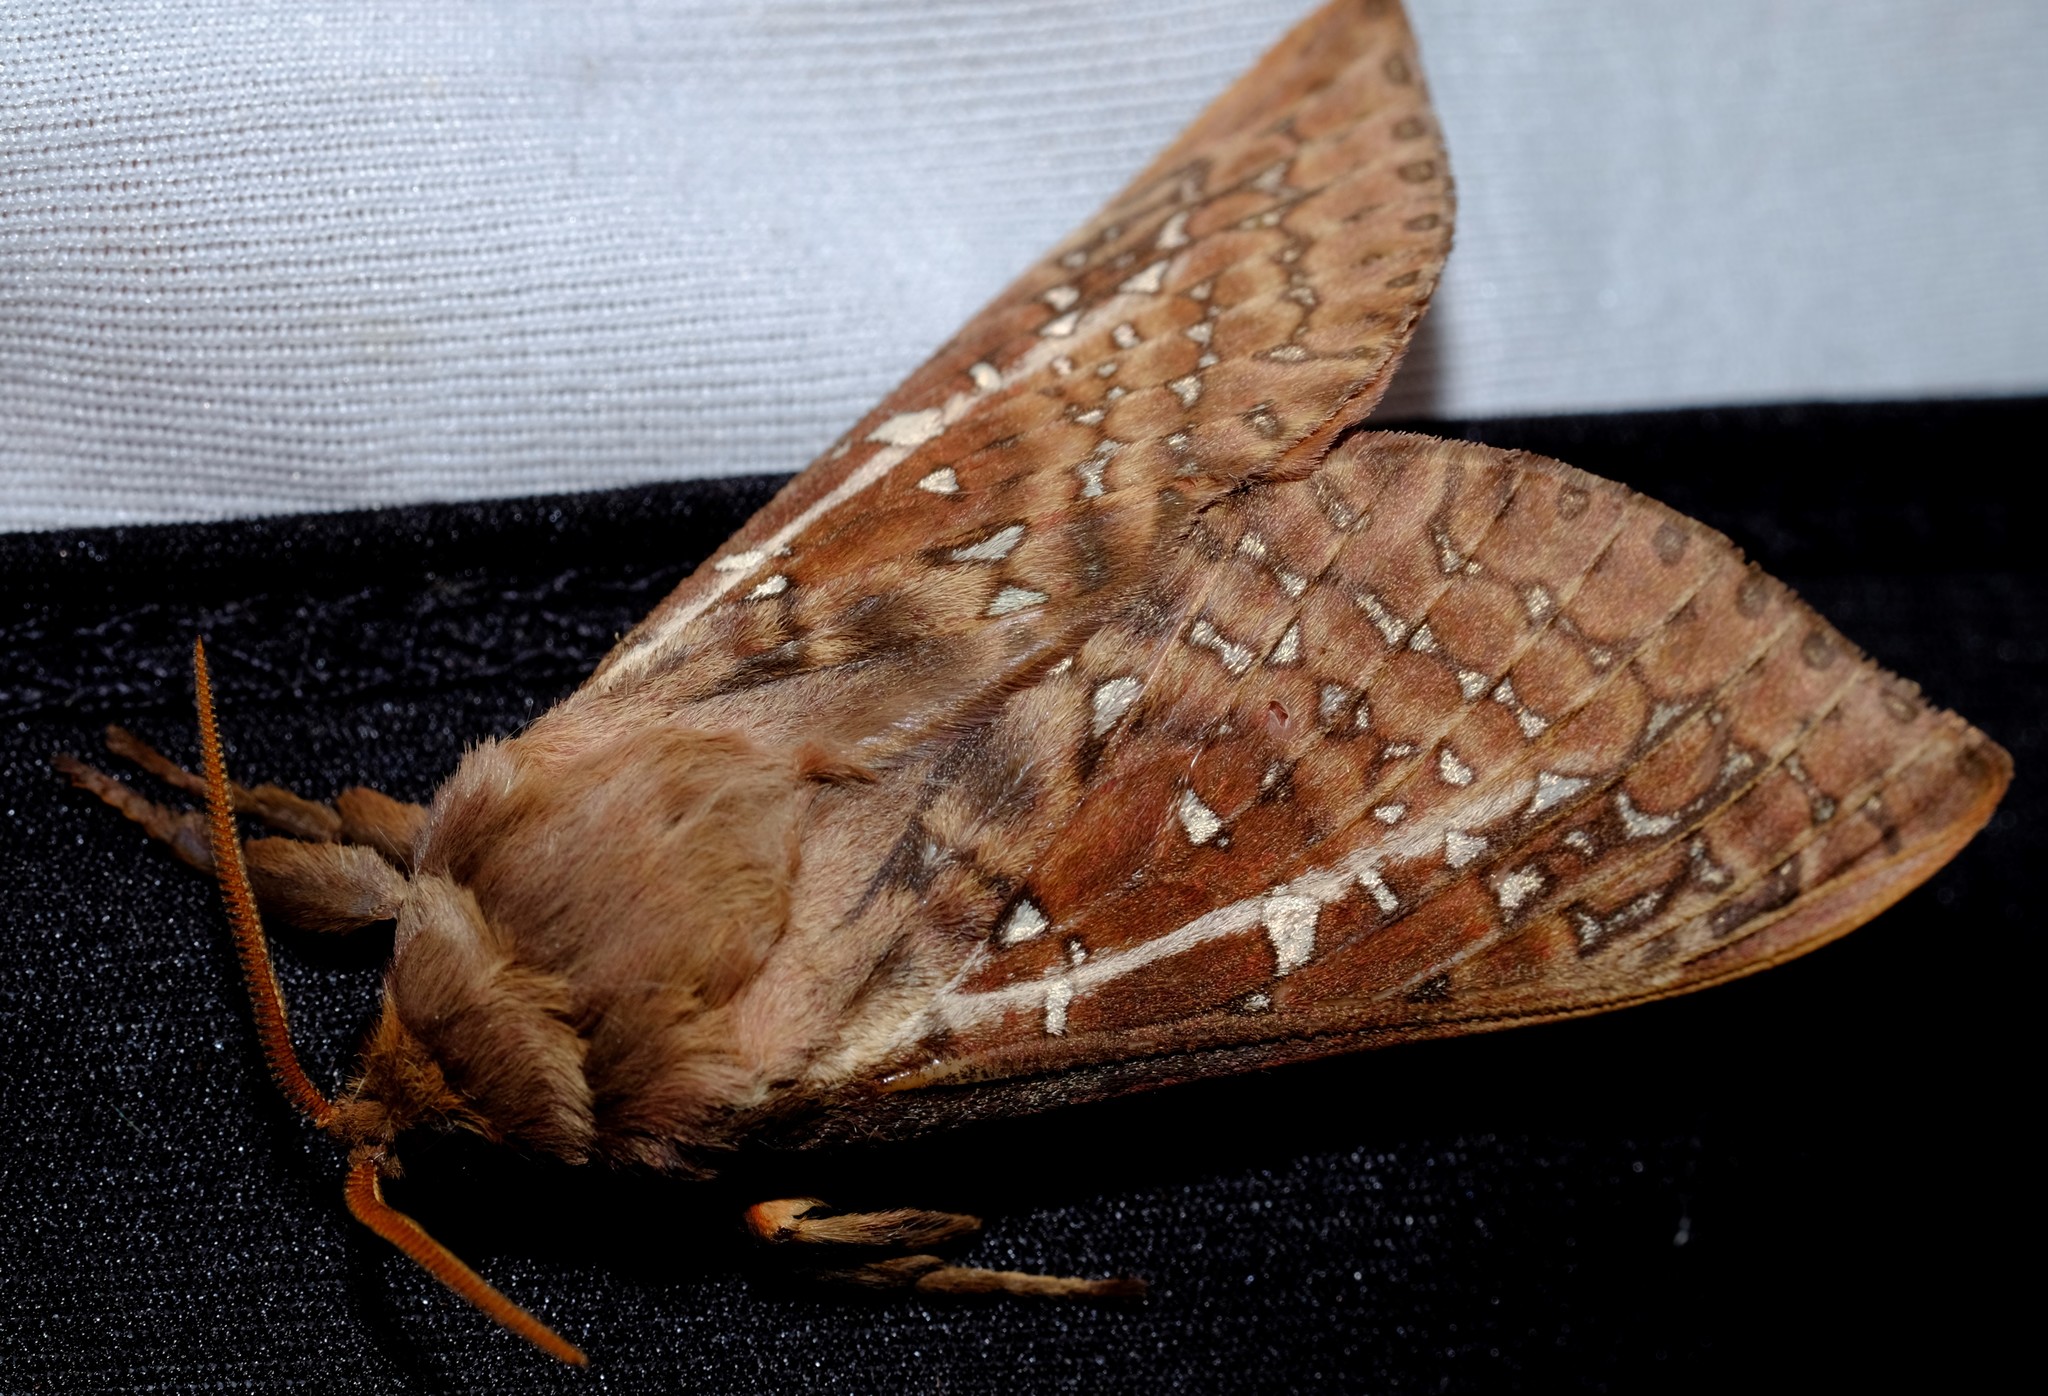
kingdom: Animalia
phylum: Arthropoda
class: Insecta
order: Lepidoptera
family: Hepialidae
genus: Oxycanus
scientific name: Oxycanus australis
